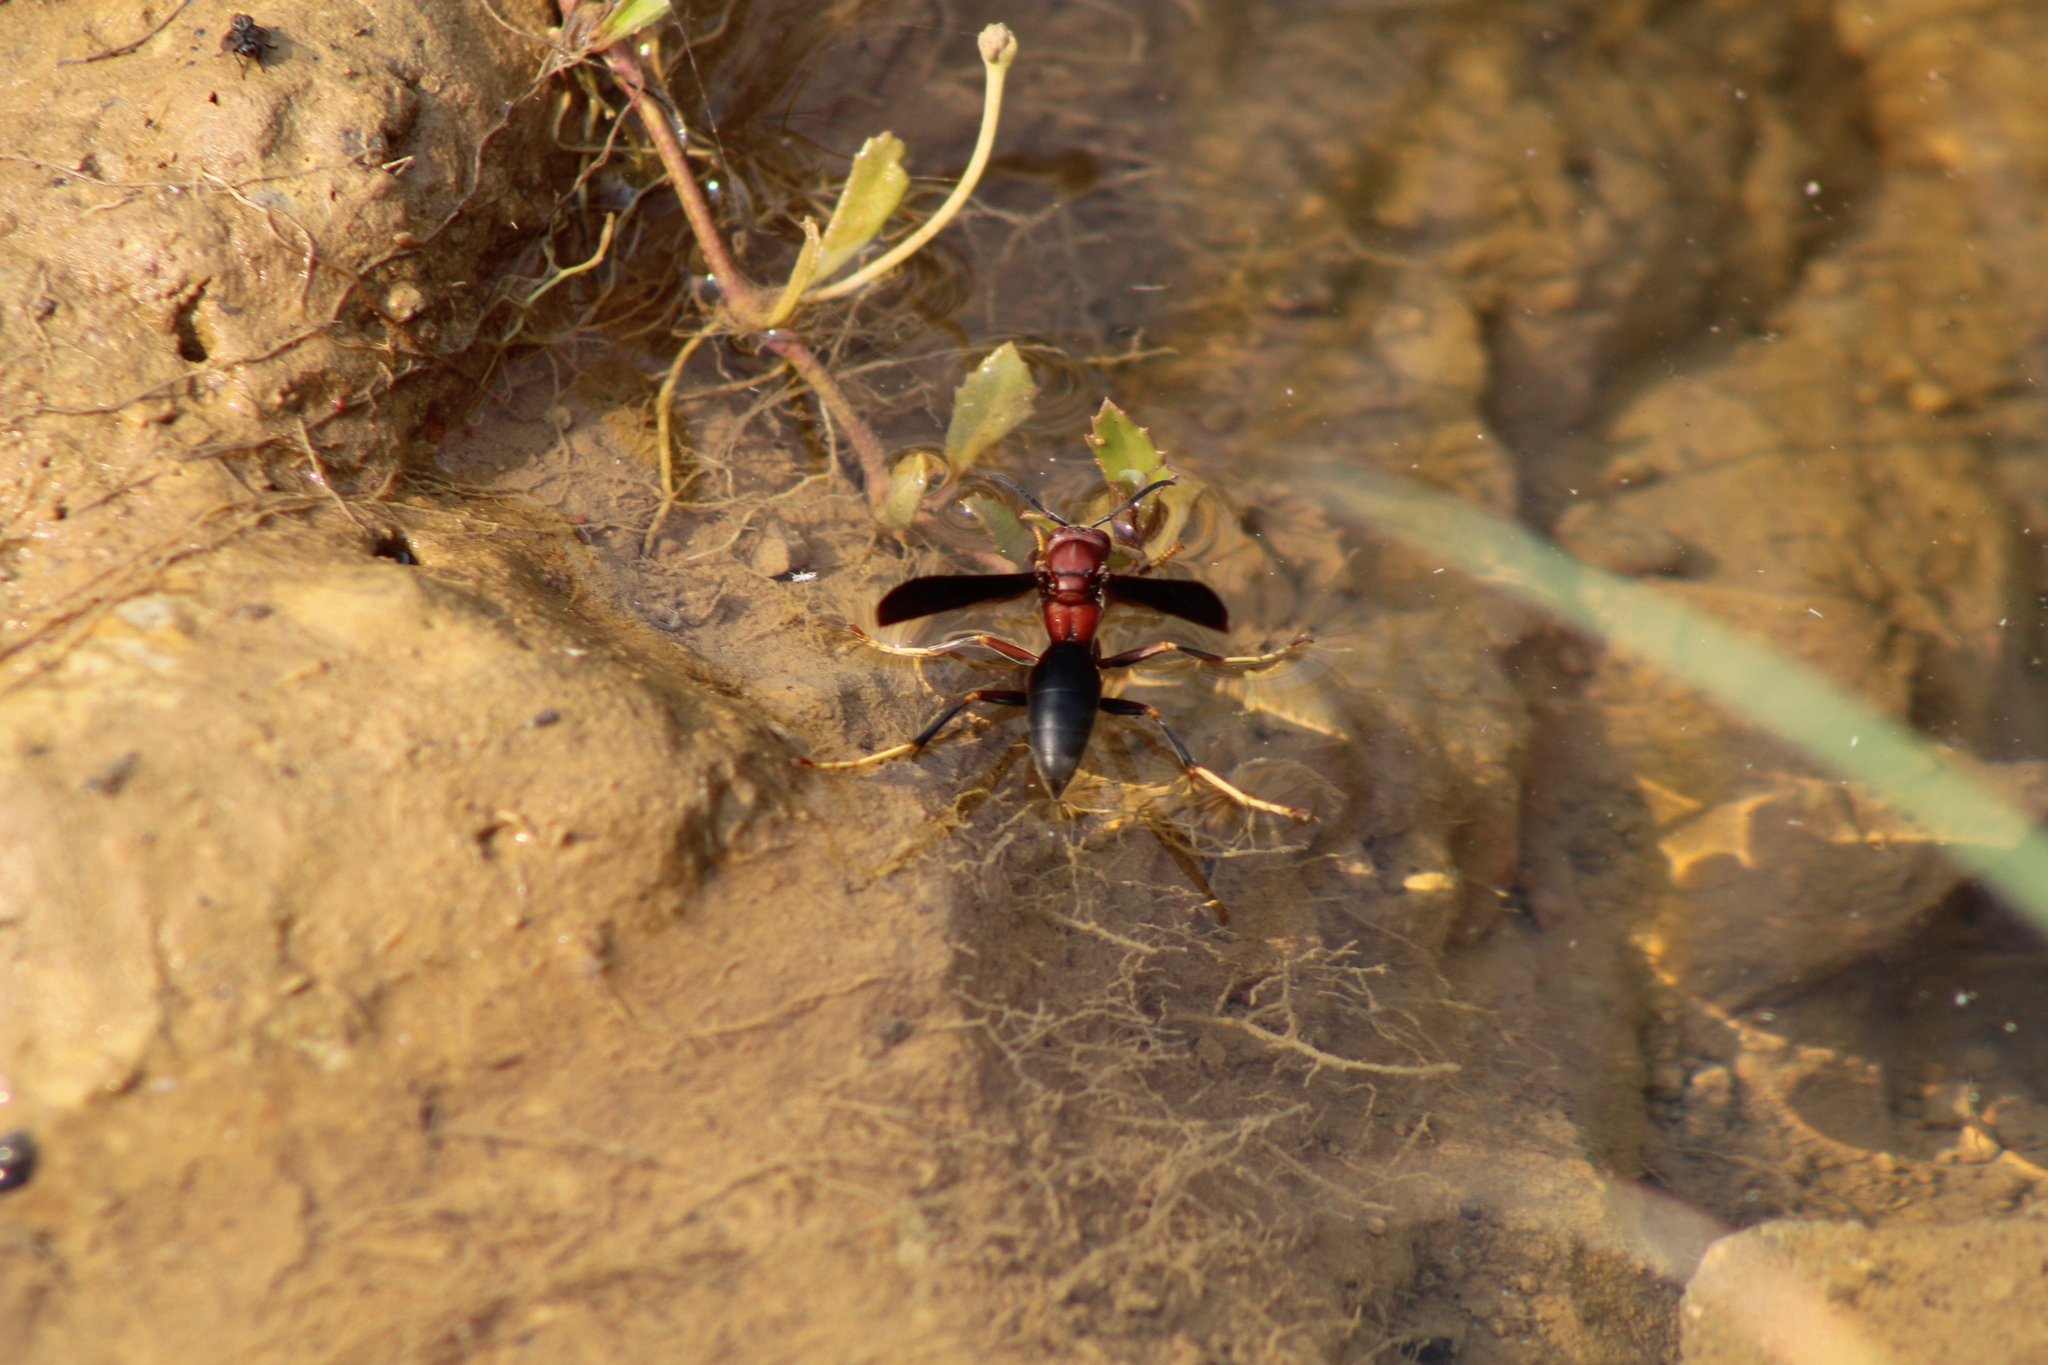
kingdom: Animalia
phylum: Arthropoda
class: Insecta
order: Hymenoptera
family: Eumenidae
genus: Polistes
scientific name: Polistes metricus
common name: Metric paper wasp
